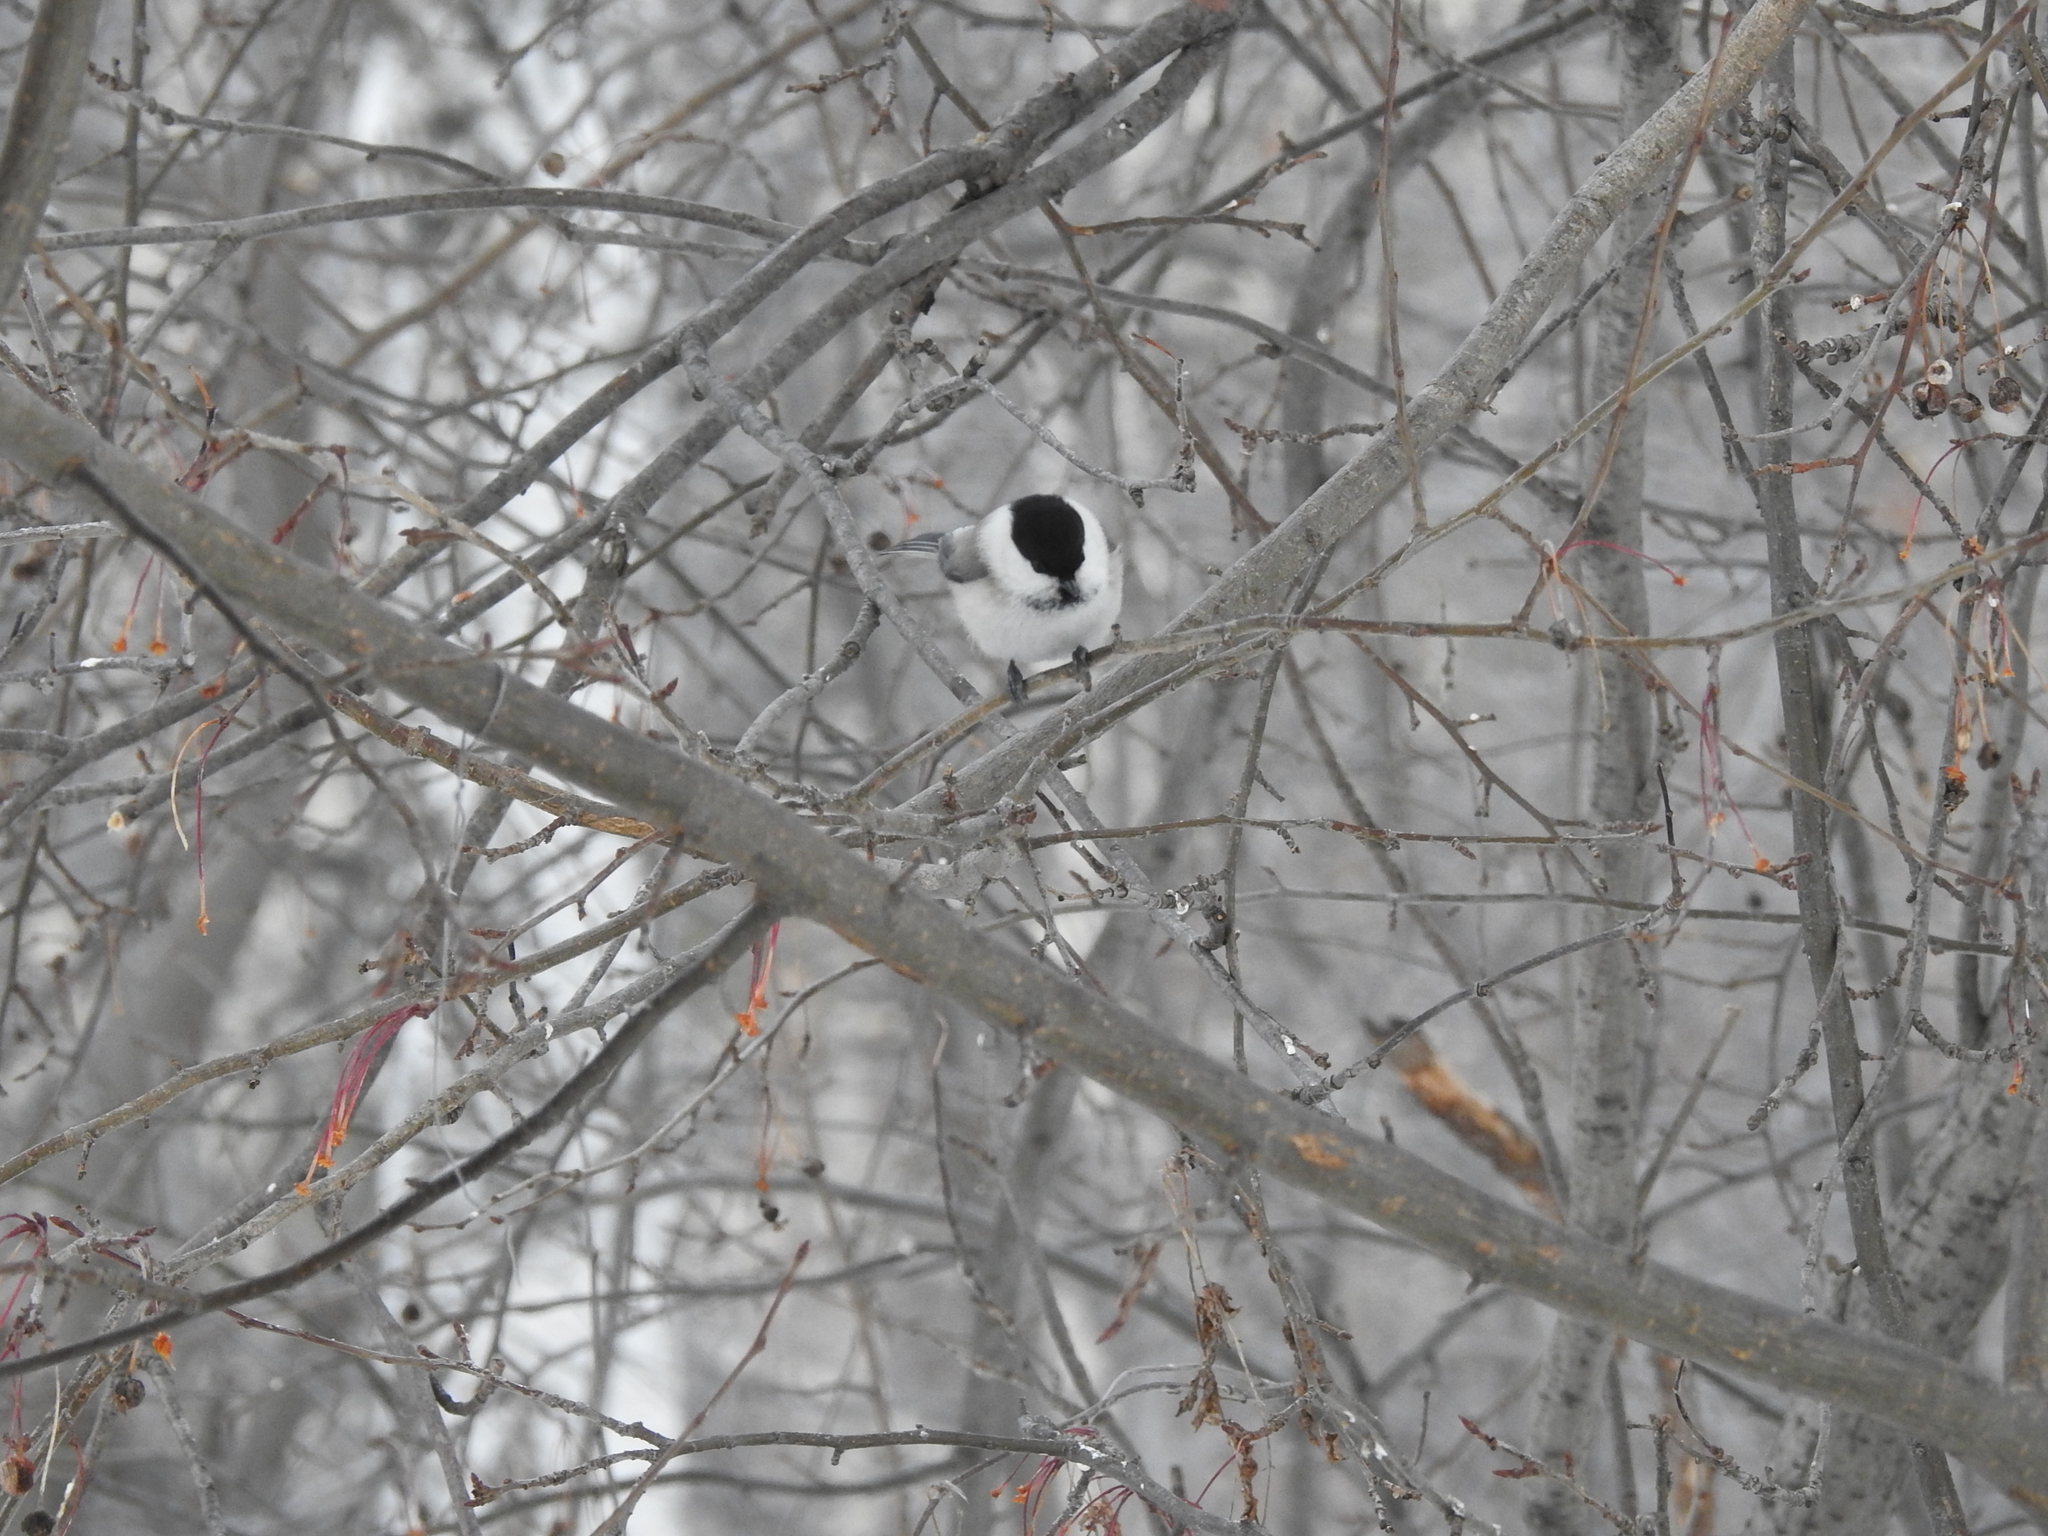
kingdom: Animalia
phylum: Chordata
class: Aves
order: Passeriformes
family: Paridae
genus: Poecile
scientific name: Poecile montanus
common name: Willow tit
